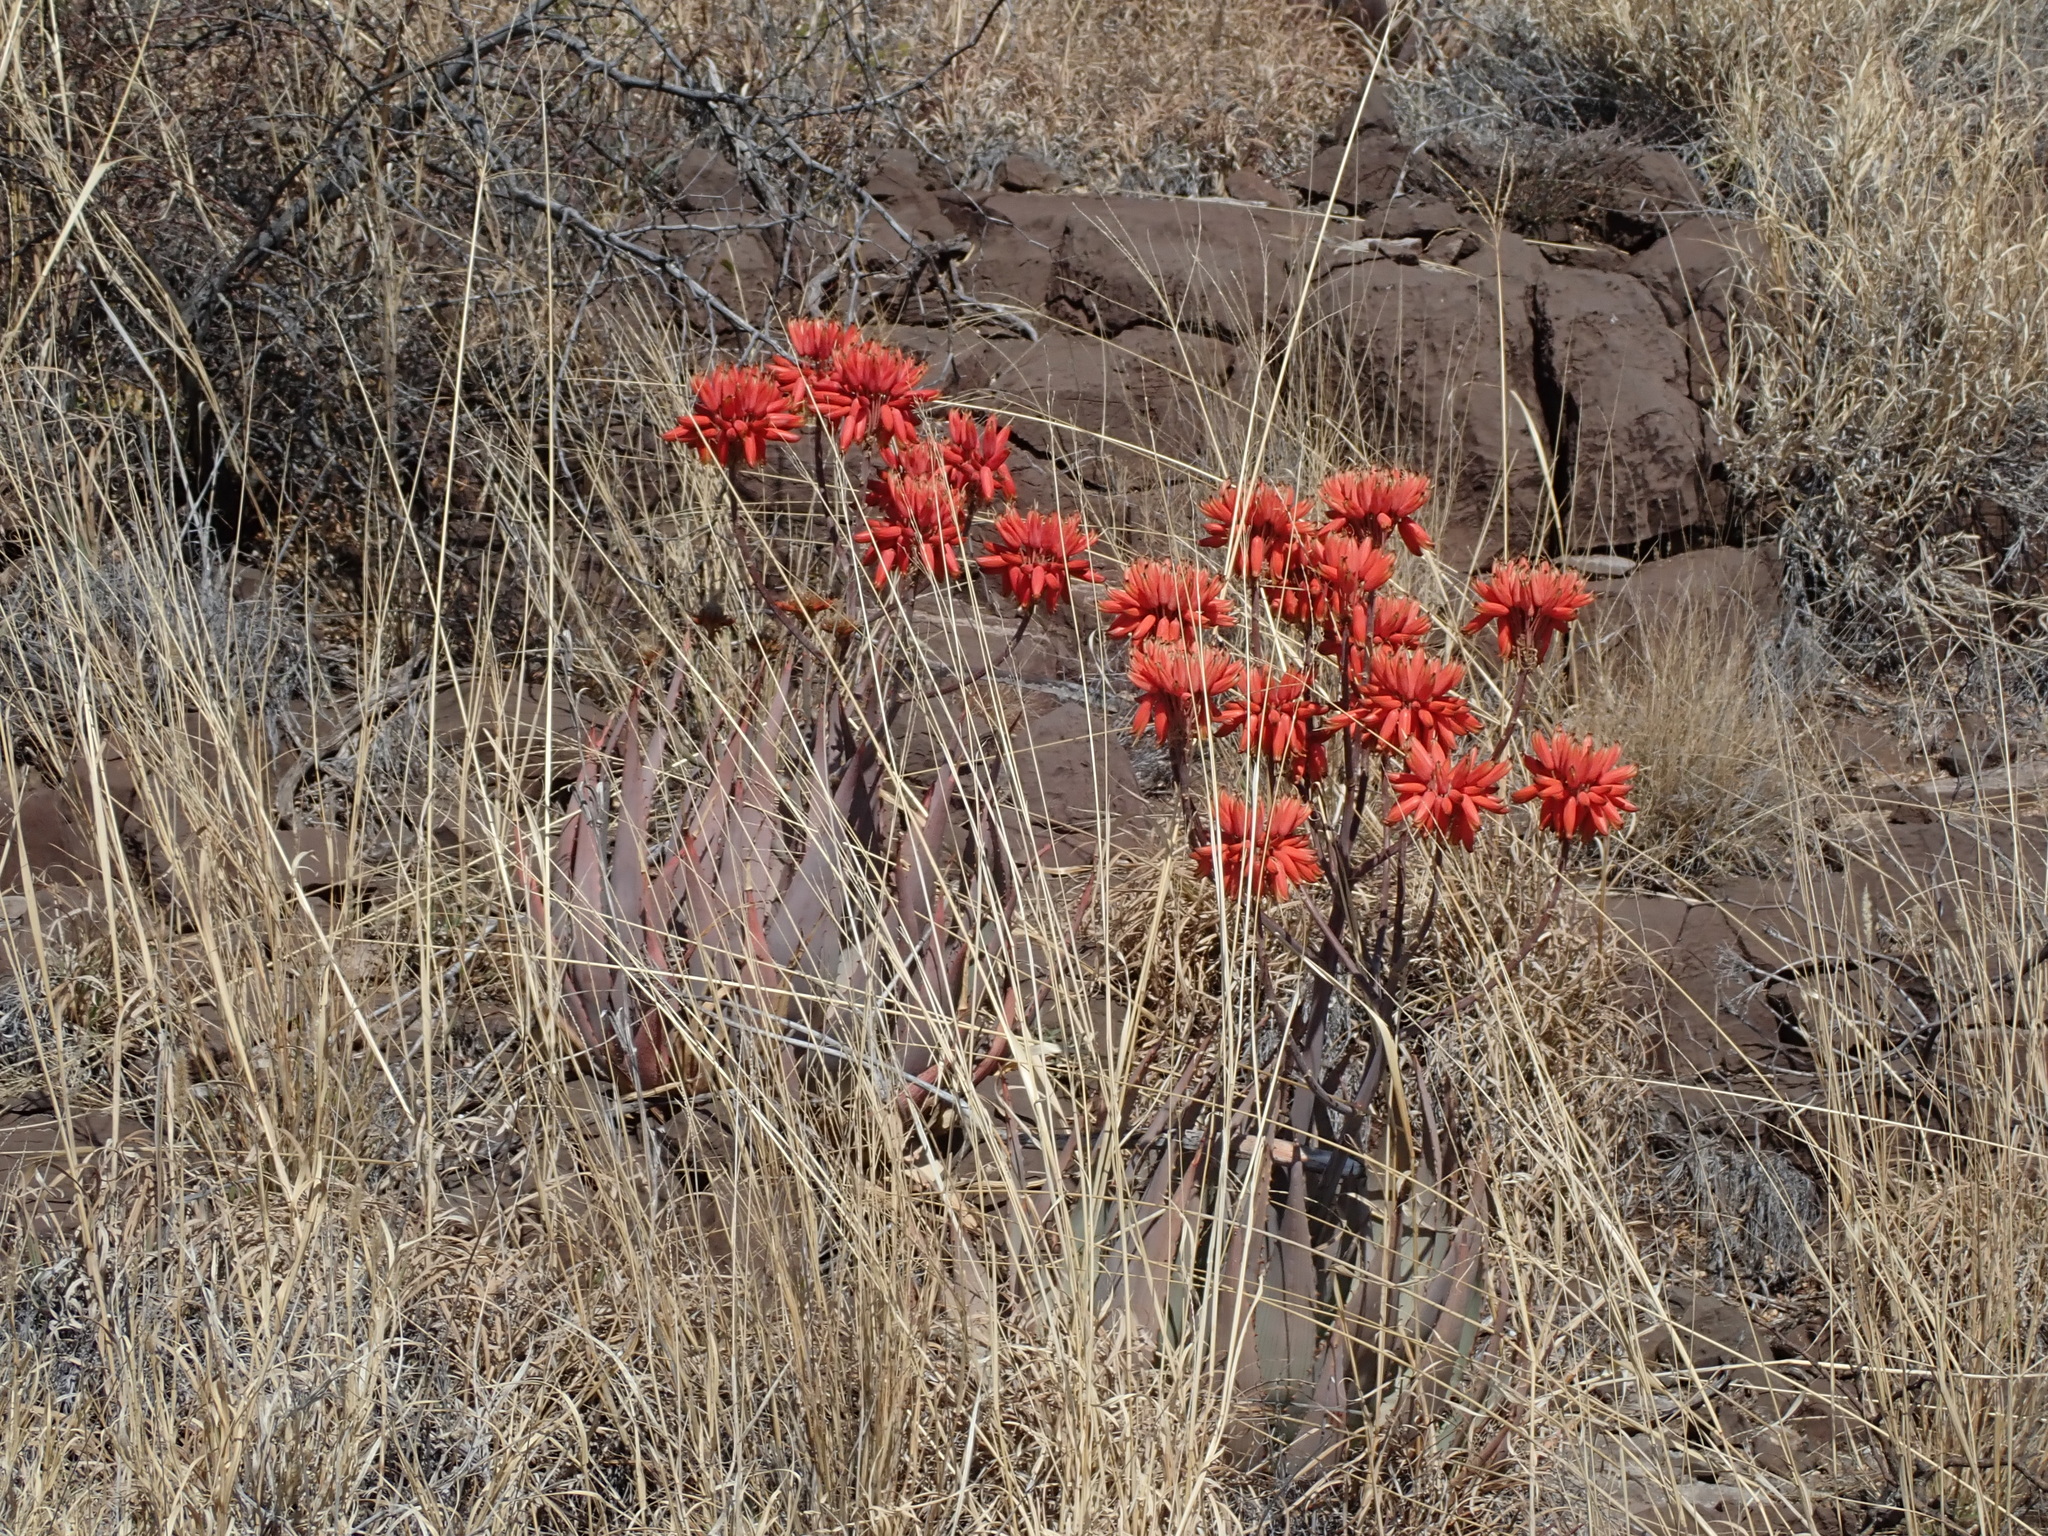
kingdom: Plantae
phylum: Tracheophyta
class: Liliopsida
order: Asparagales
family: Asphodelaceae
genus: Aloe
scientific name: Aloe hereroensis
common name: Herero aloe
